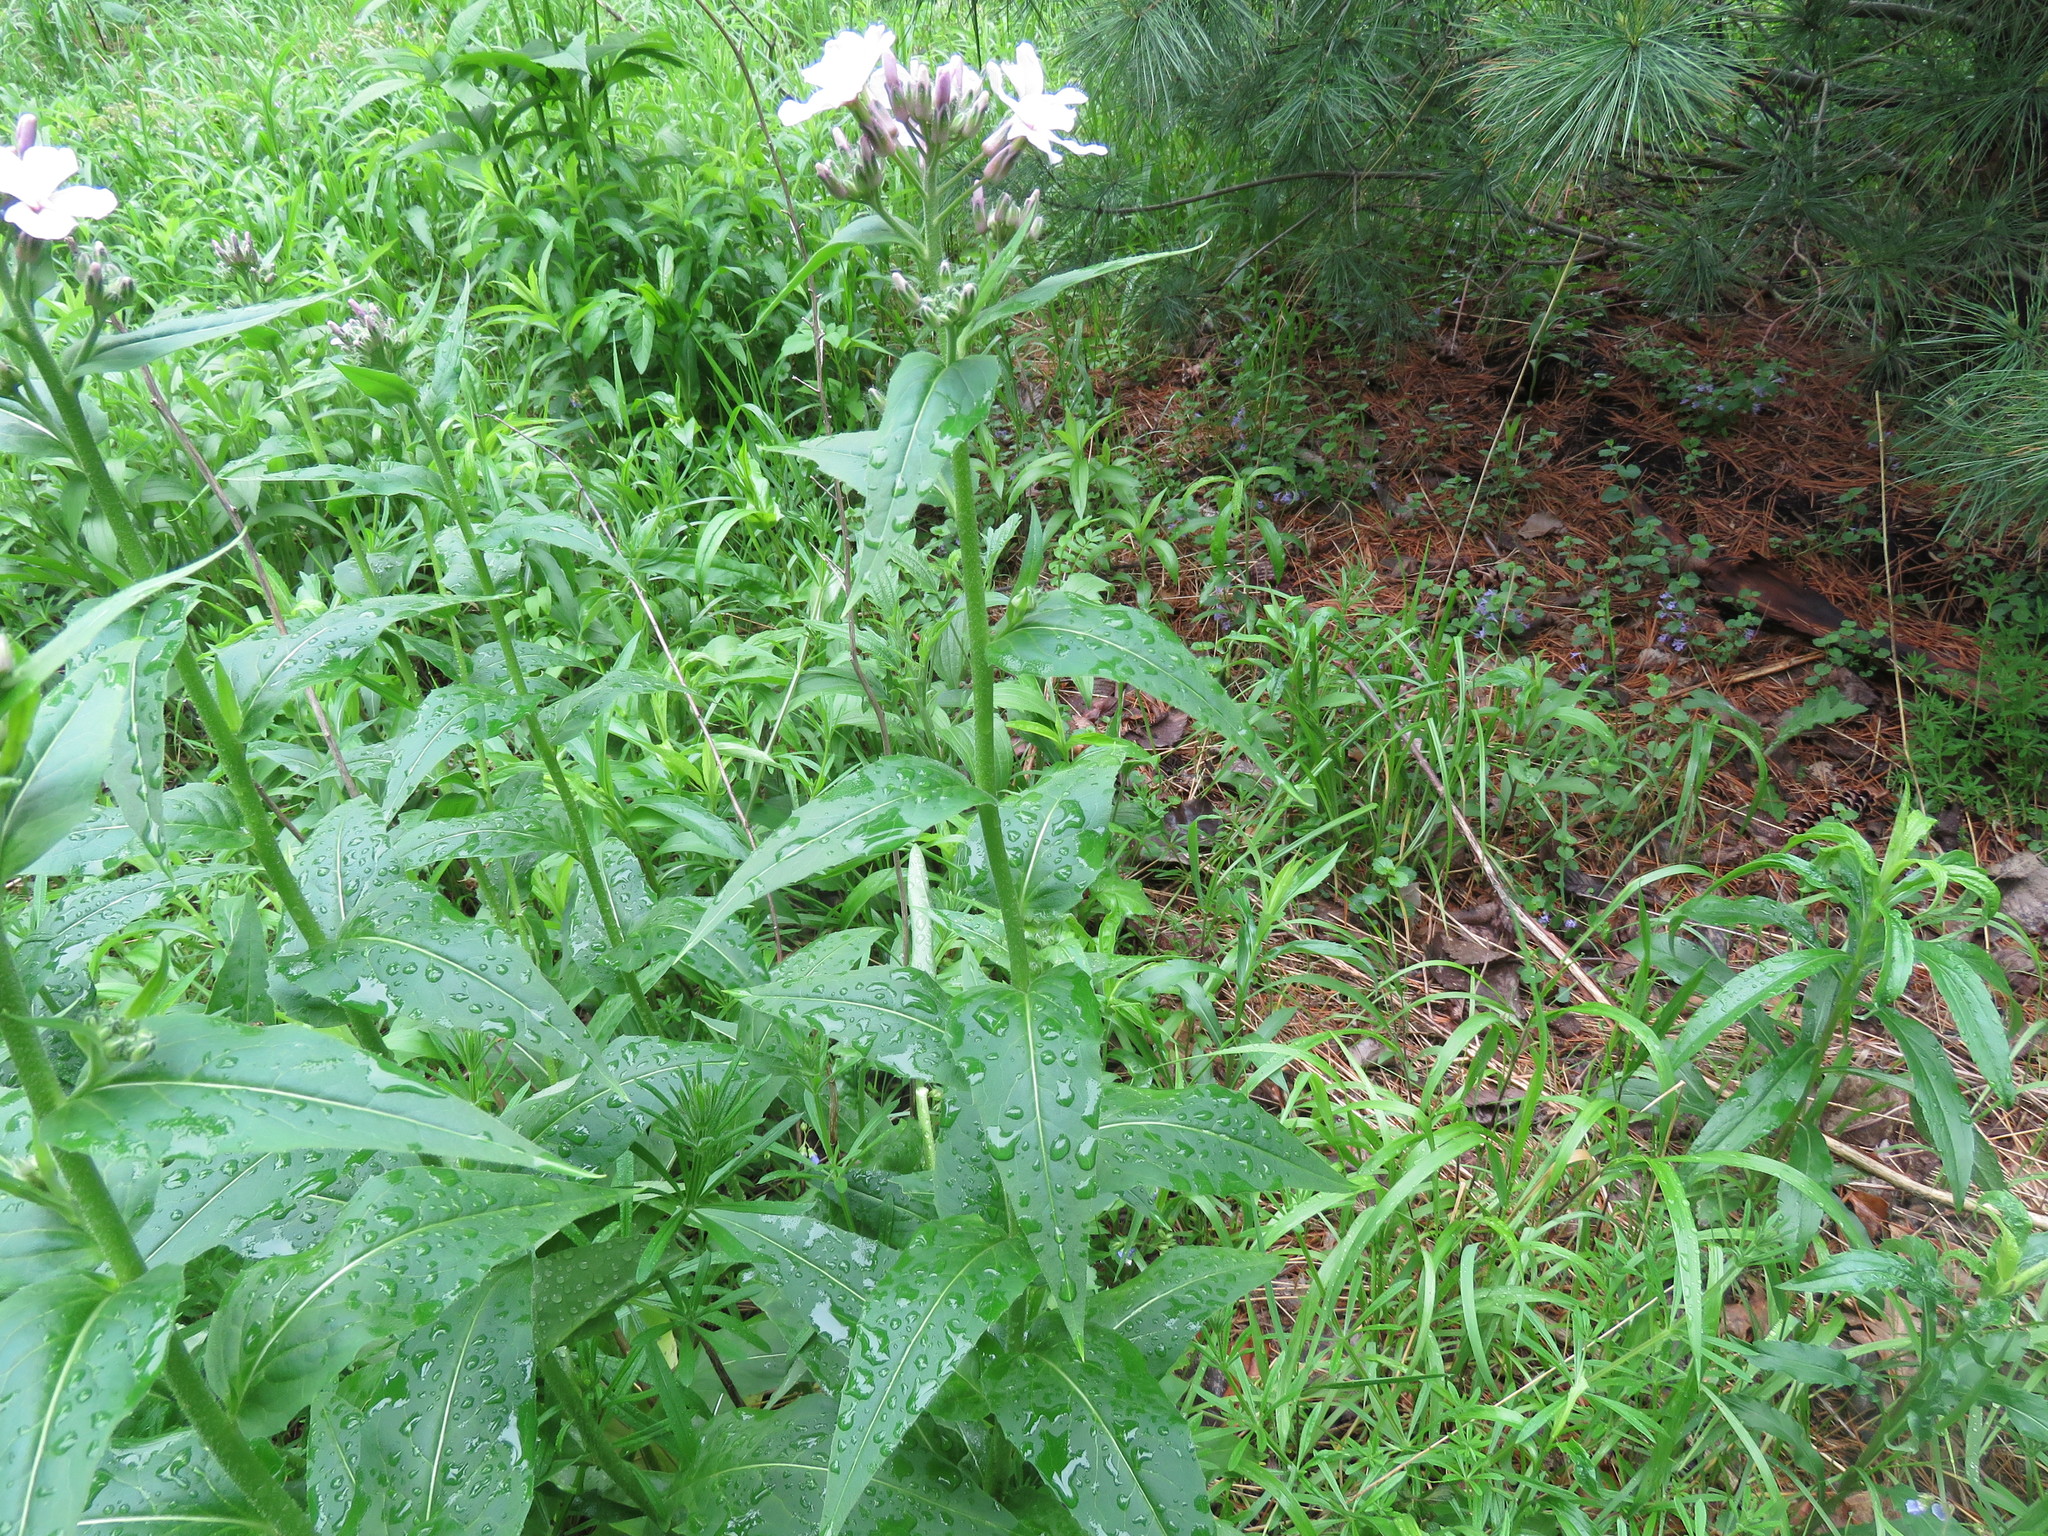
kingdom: Plantae
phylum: Tracheophyta
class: Magnoliopsida
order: Brassicales
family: Brassicaceae
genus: Hesperis
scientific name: Hesperis matronalis
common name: Dame's-violet
